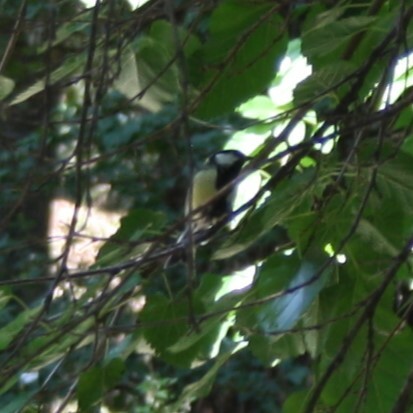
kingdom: Animalia
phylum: Chordata
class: Aves
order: Passeriformes
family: Paridae
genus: Parus
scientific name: Parus major
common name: Great tit
